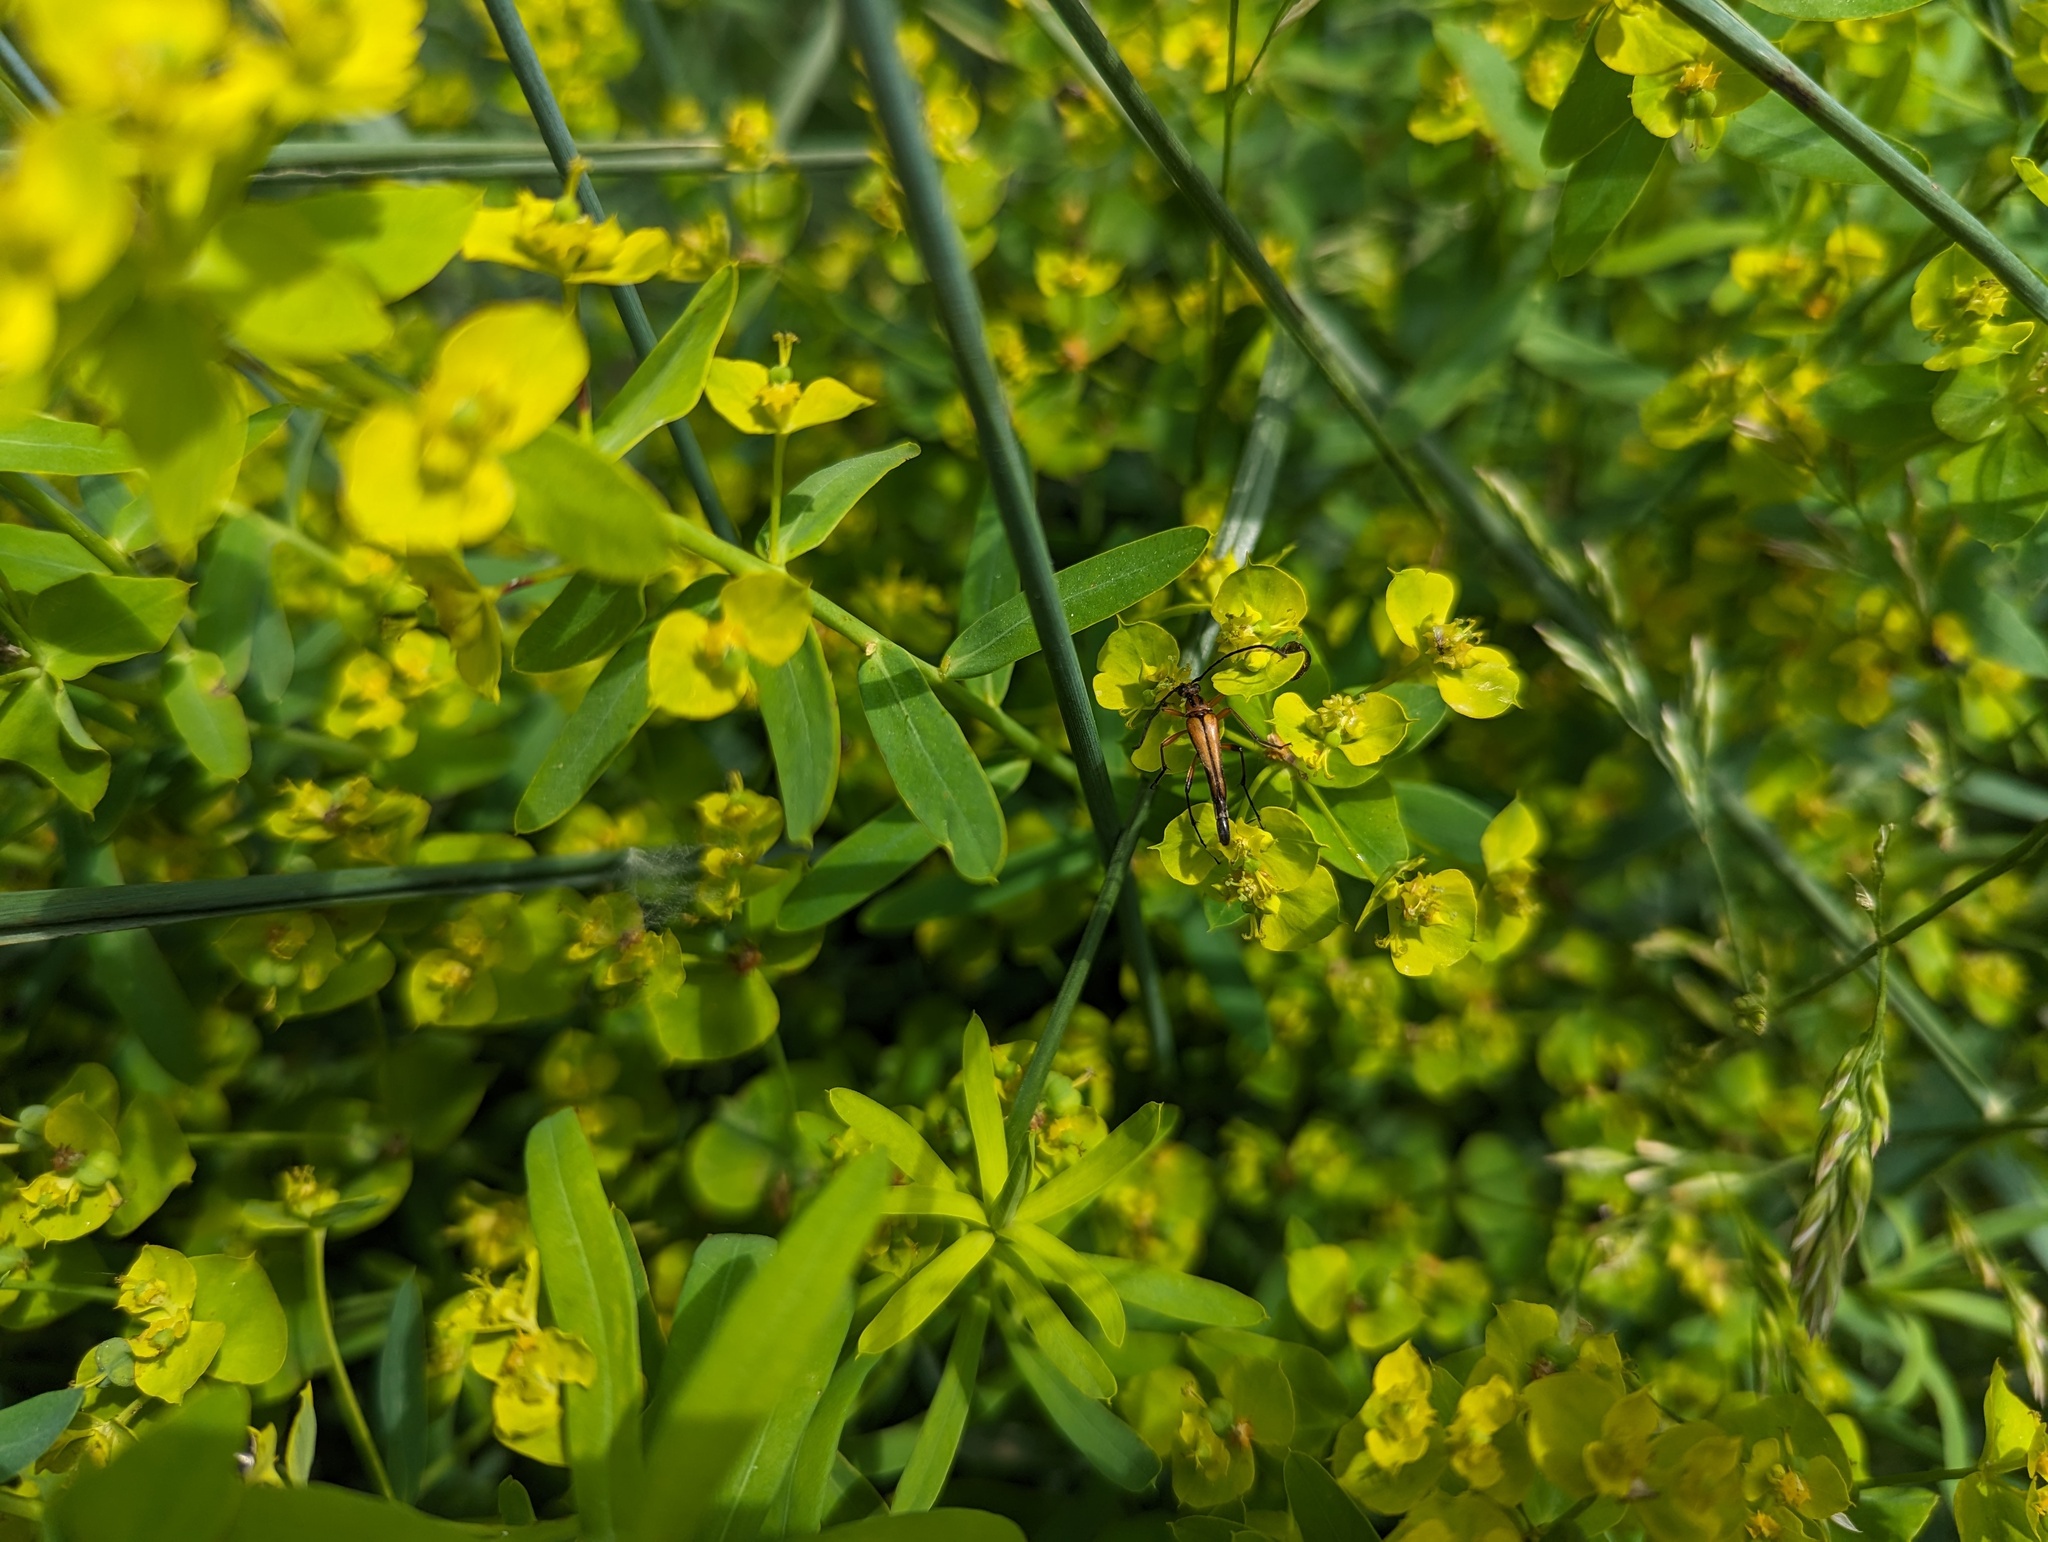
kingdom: Plantae
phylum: Tracheophyta
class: Magnoliopsida
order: Malpighiales
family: Euphorbiaceae
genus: Euphorbia
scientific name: Euphorbia virgata
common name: Leafy spurge
